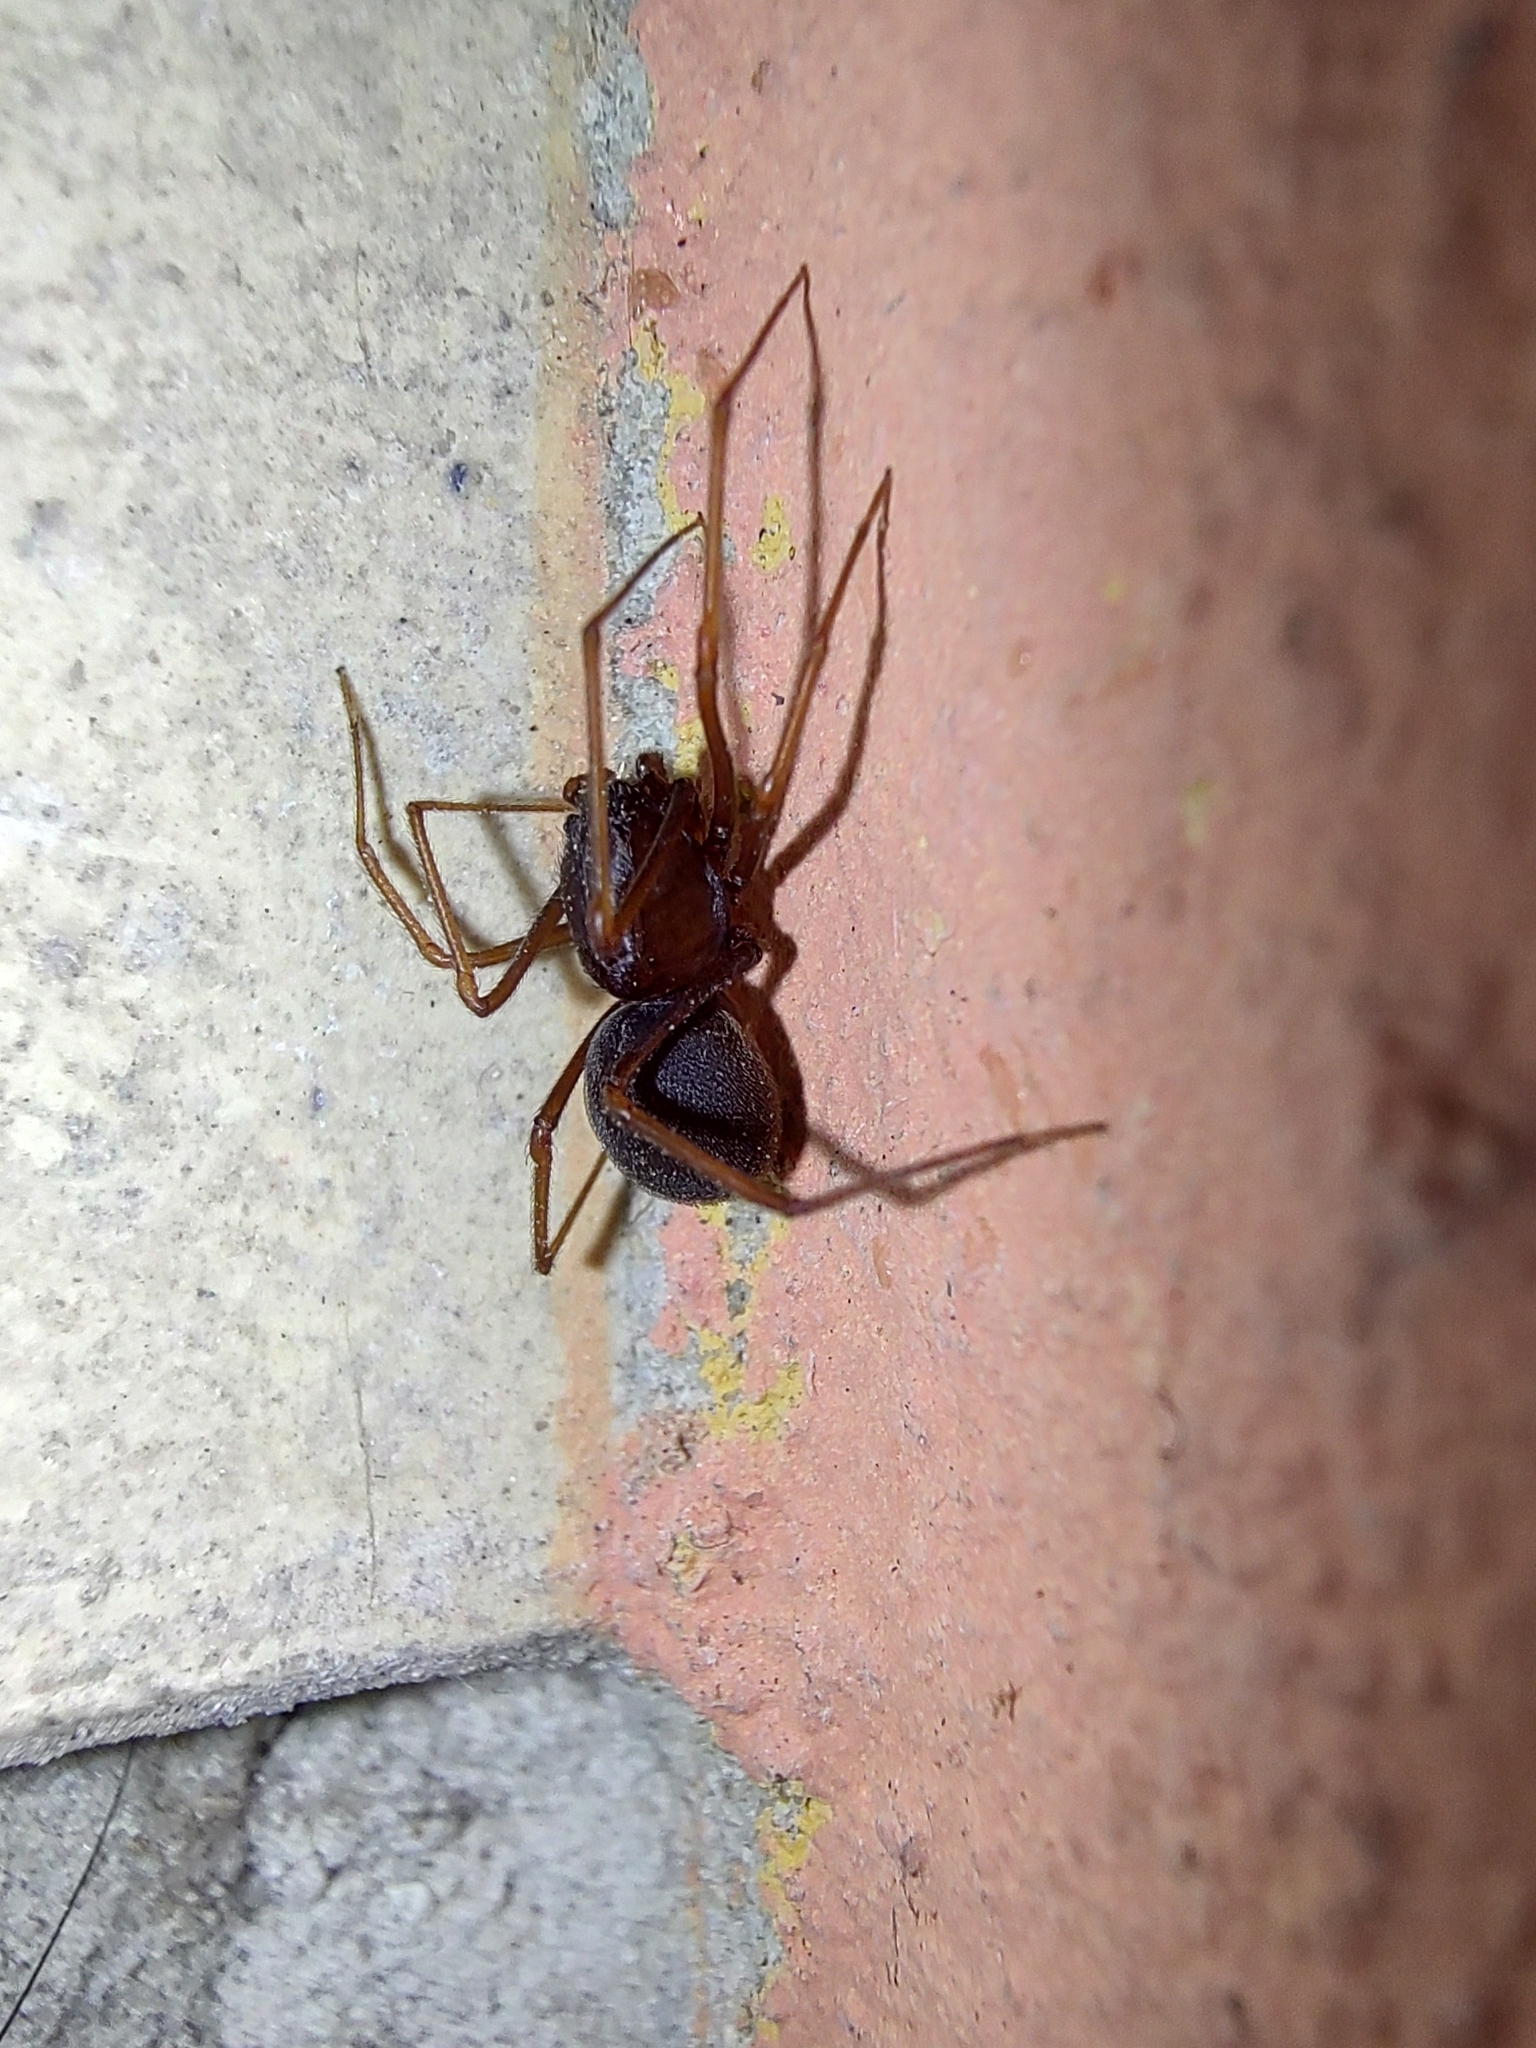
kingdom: Animalia
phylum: Arthropoda
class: Arachnida
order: Araneae
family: Scytodidae
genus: Scytodes
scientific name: Scytodes fusca
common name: Spitting spiders
